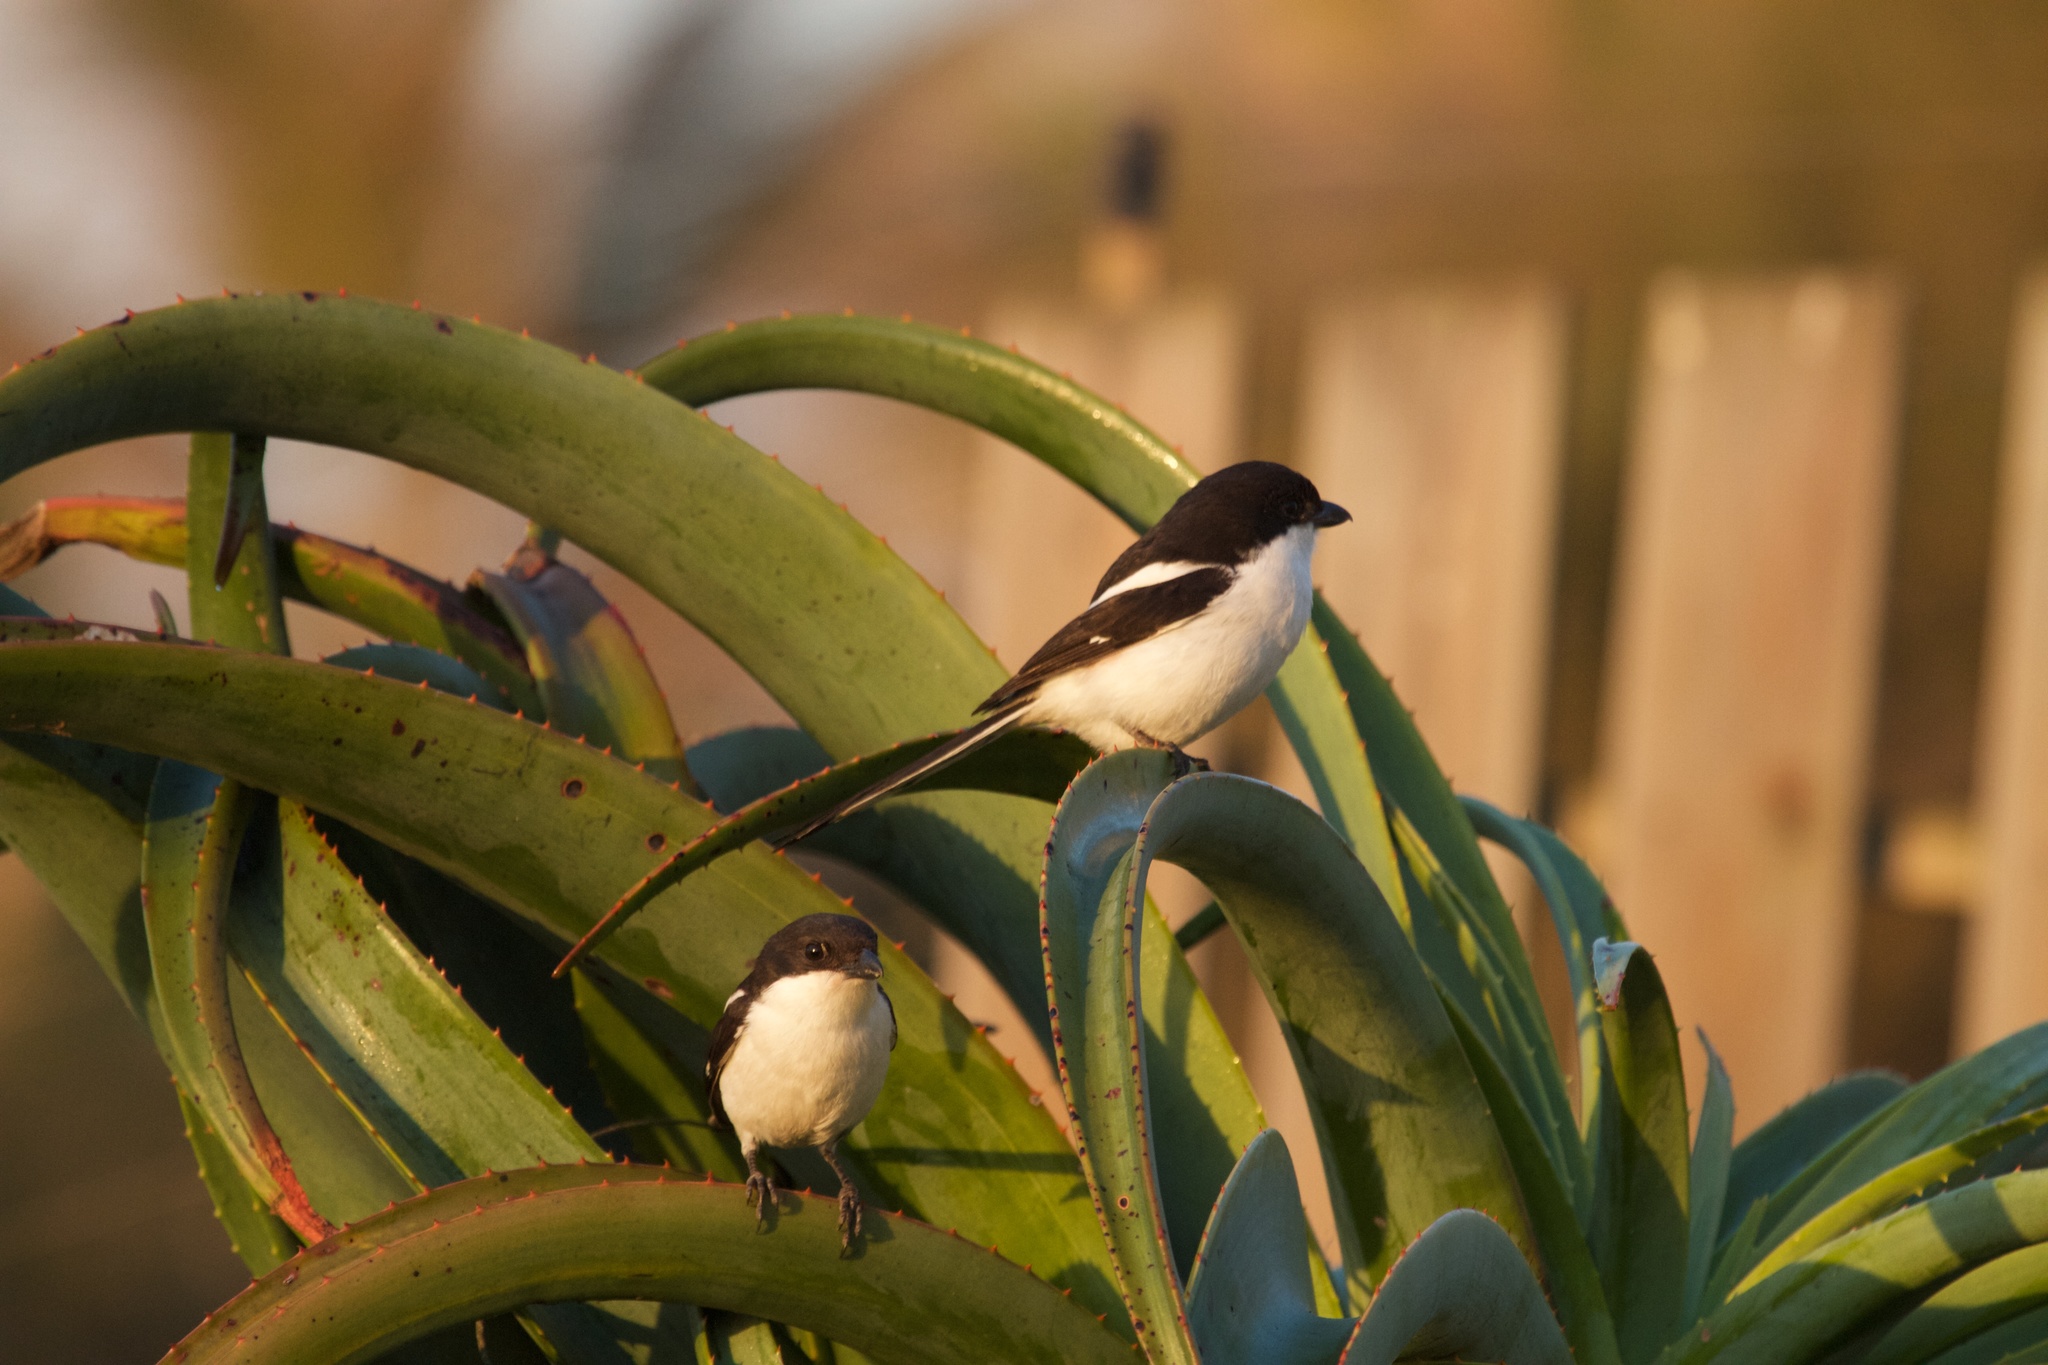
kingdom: Animalia
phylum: Chordata
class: Aves
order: Passeriformes
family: Laniidae
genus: Lanius
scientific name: Lanius collaris
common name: Southern fiscal
